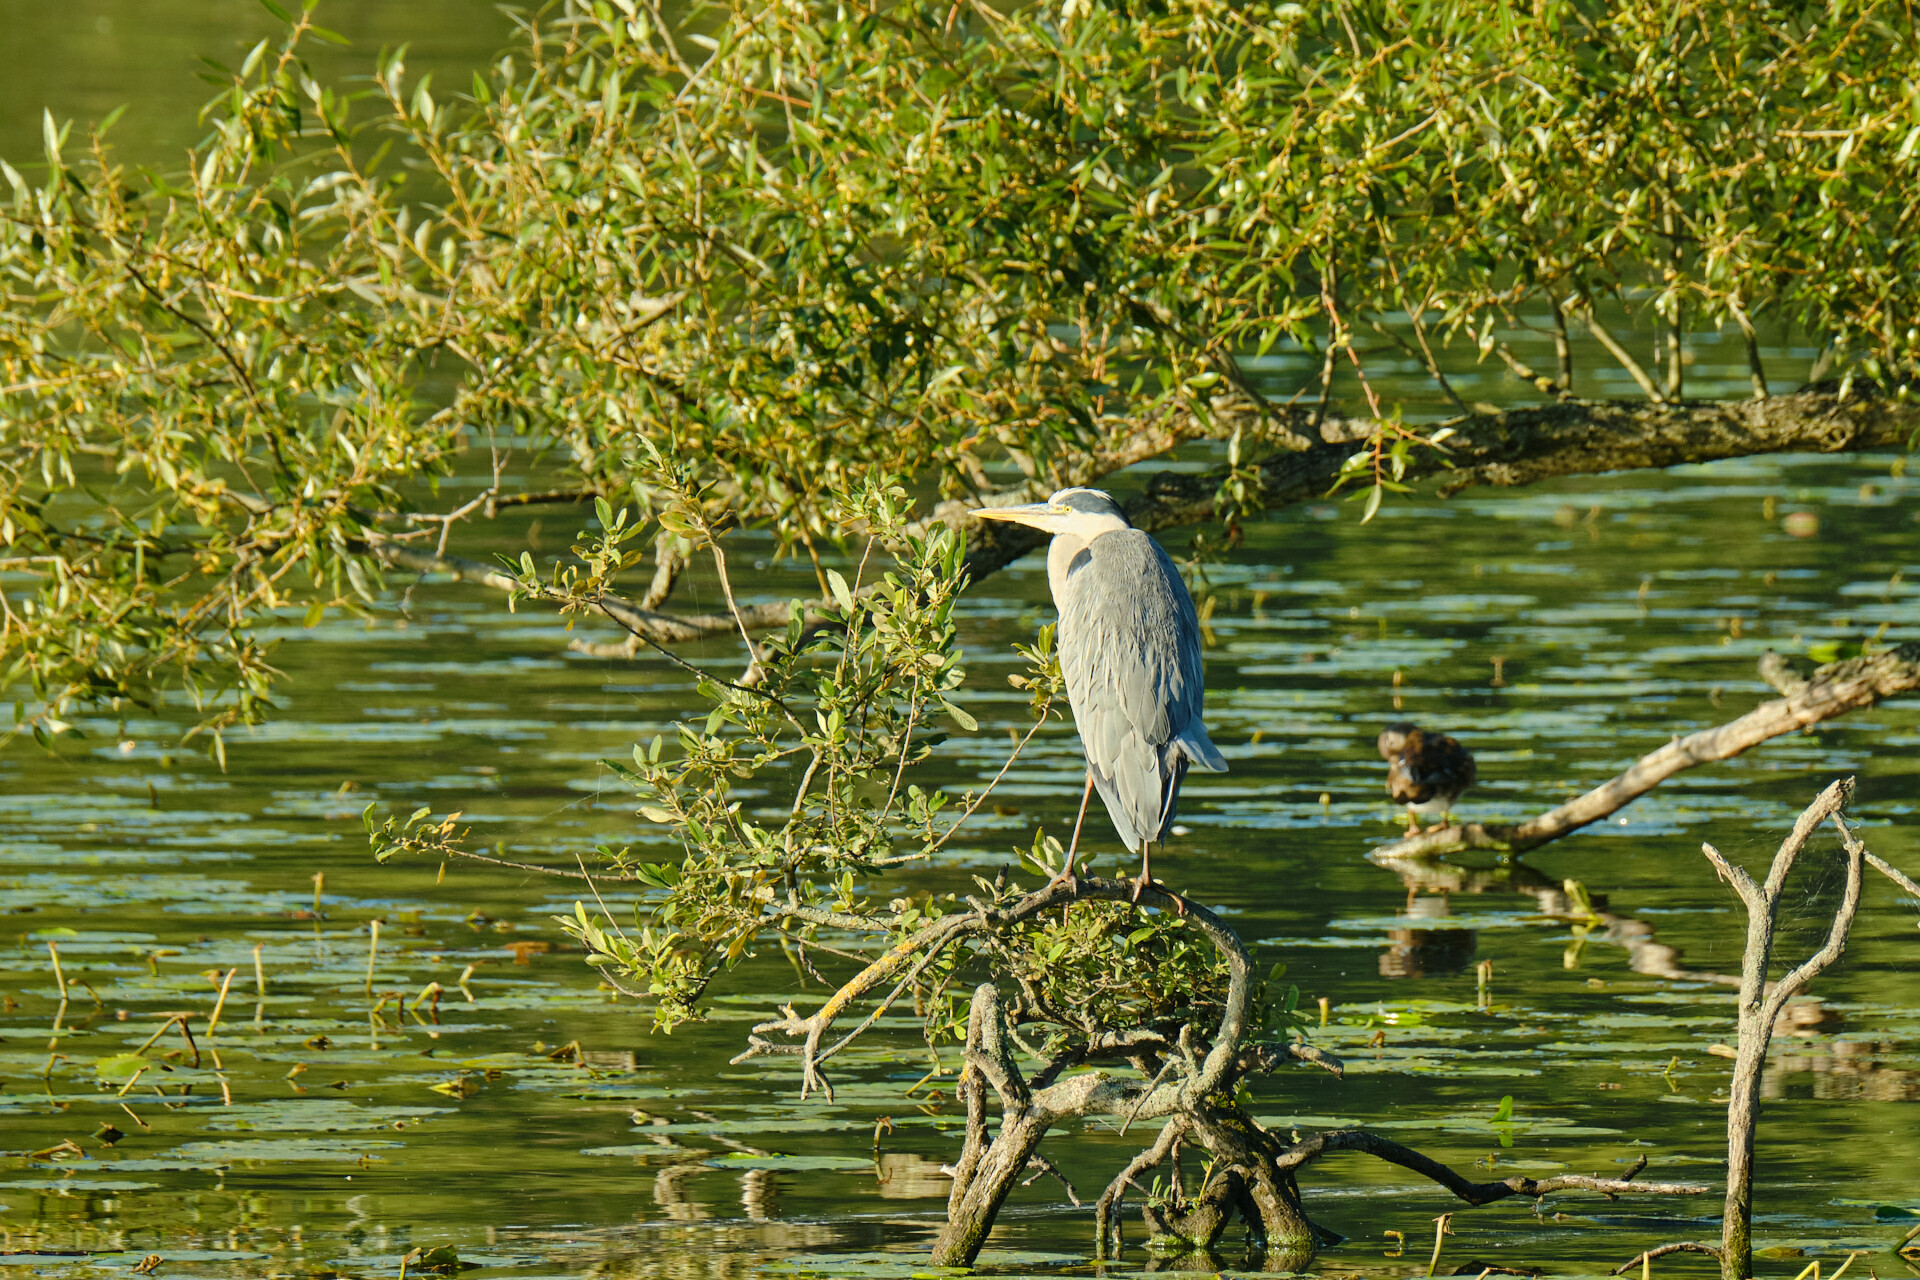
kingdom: Animalia
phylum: Chordata
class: Aves
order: Pelecaniformes
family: Ardeidae
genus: Ardea
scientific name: Ardea cinerea
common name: Grey heron
